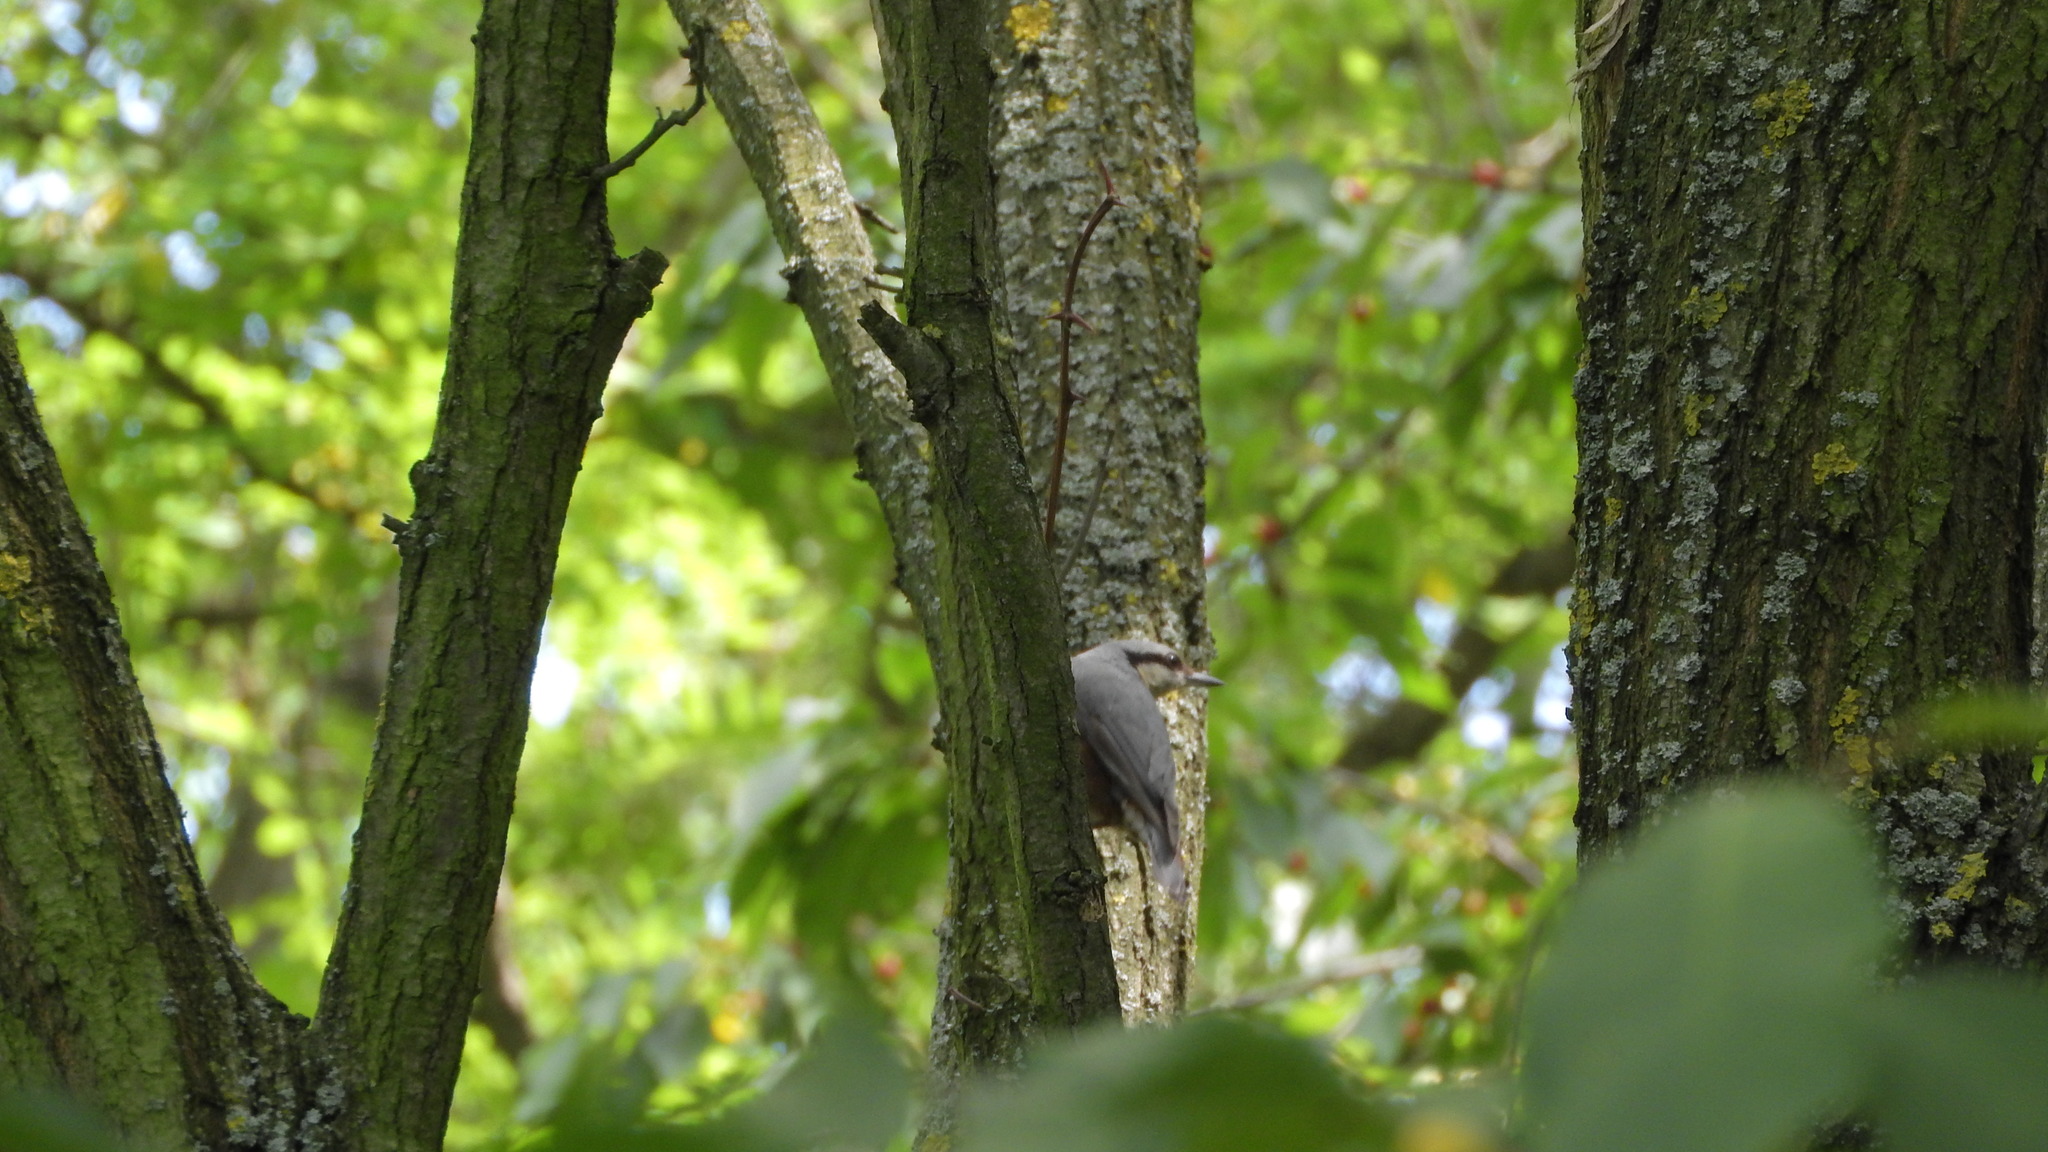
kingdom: Animalia
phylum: Chordata
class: Aves
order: Passeriformes
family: Sittidae
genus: Sitta
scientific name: Sitta europaea
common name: Eurasian nuthatch
